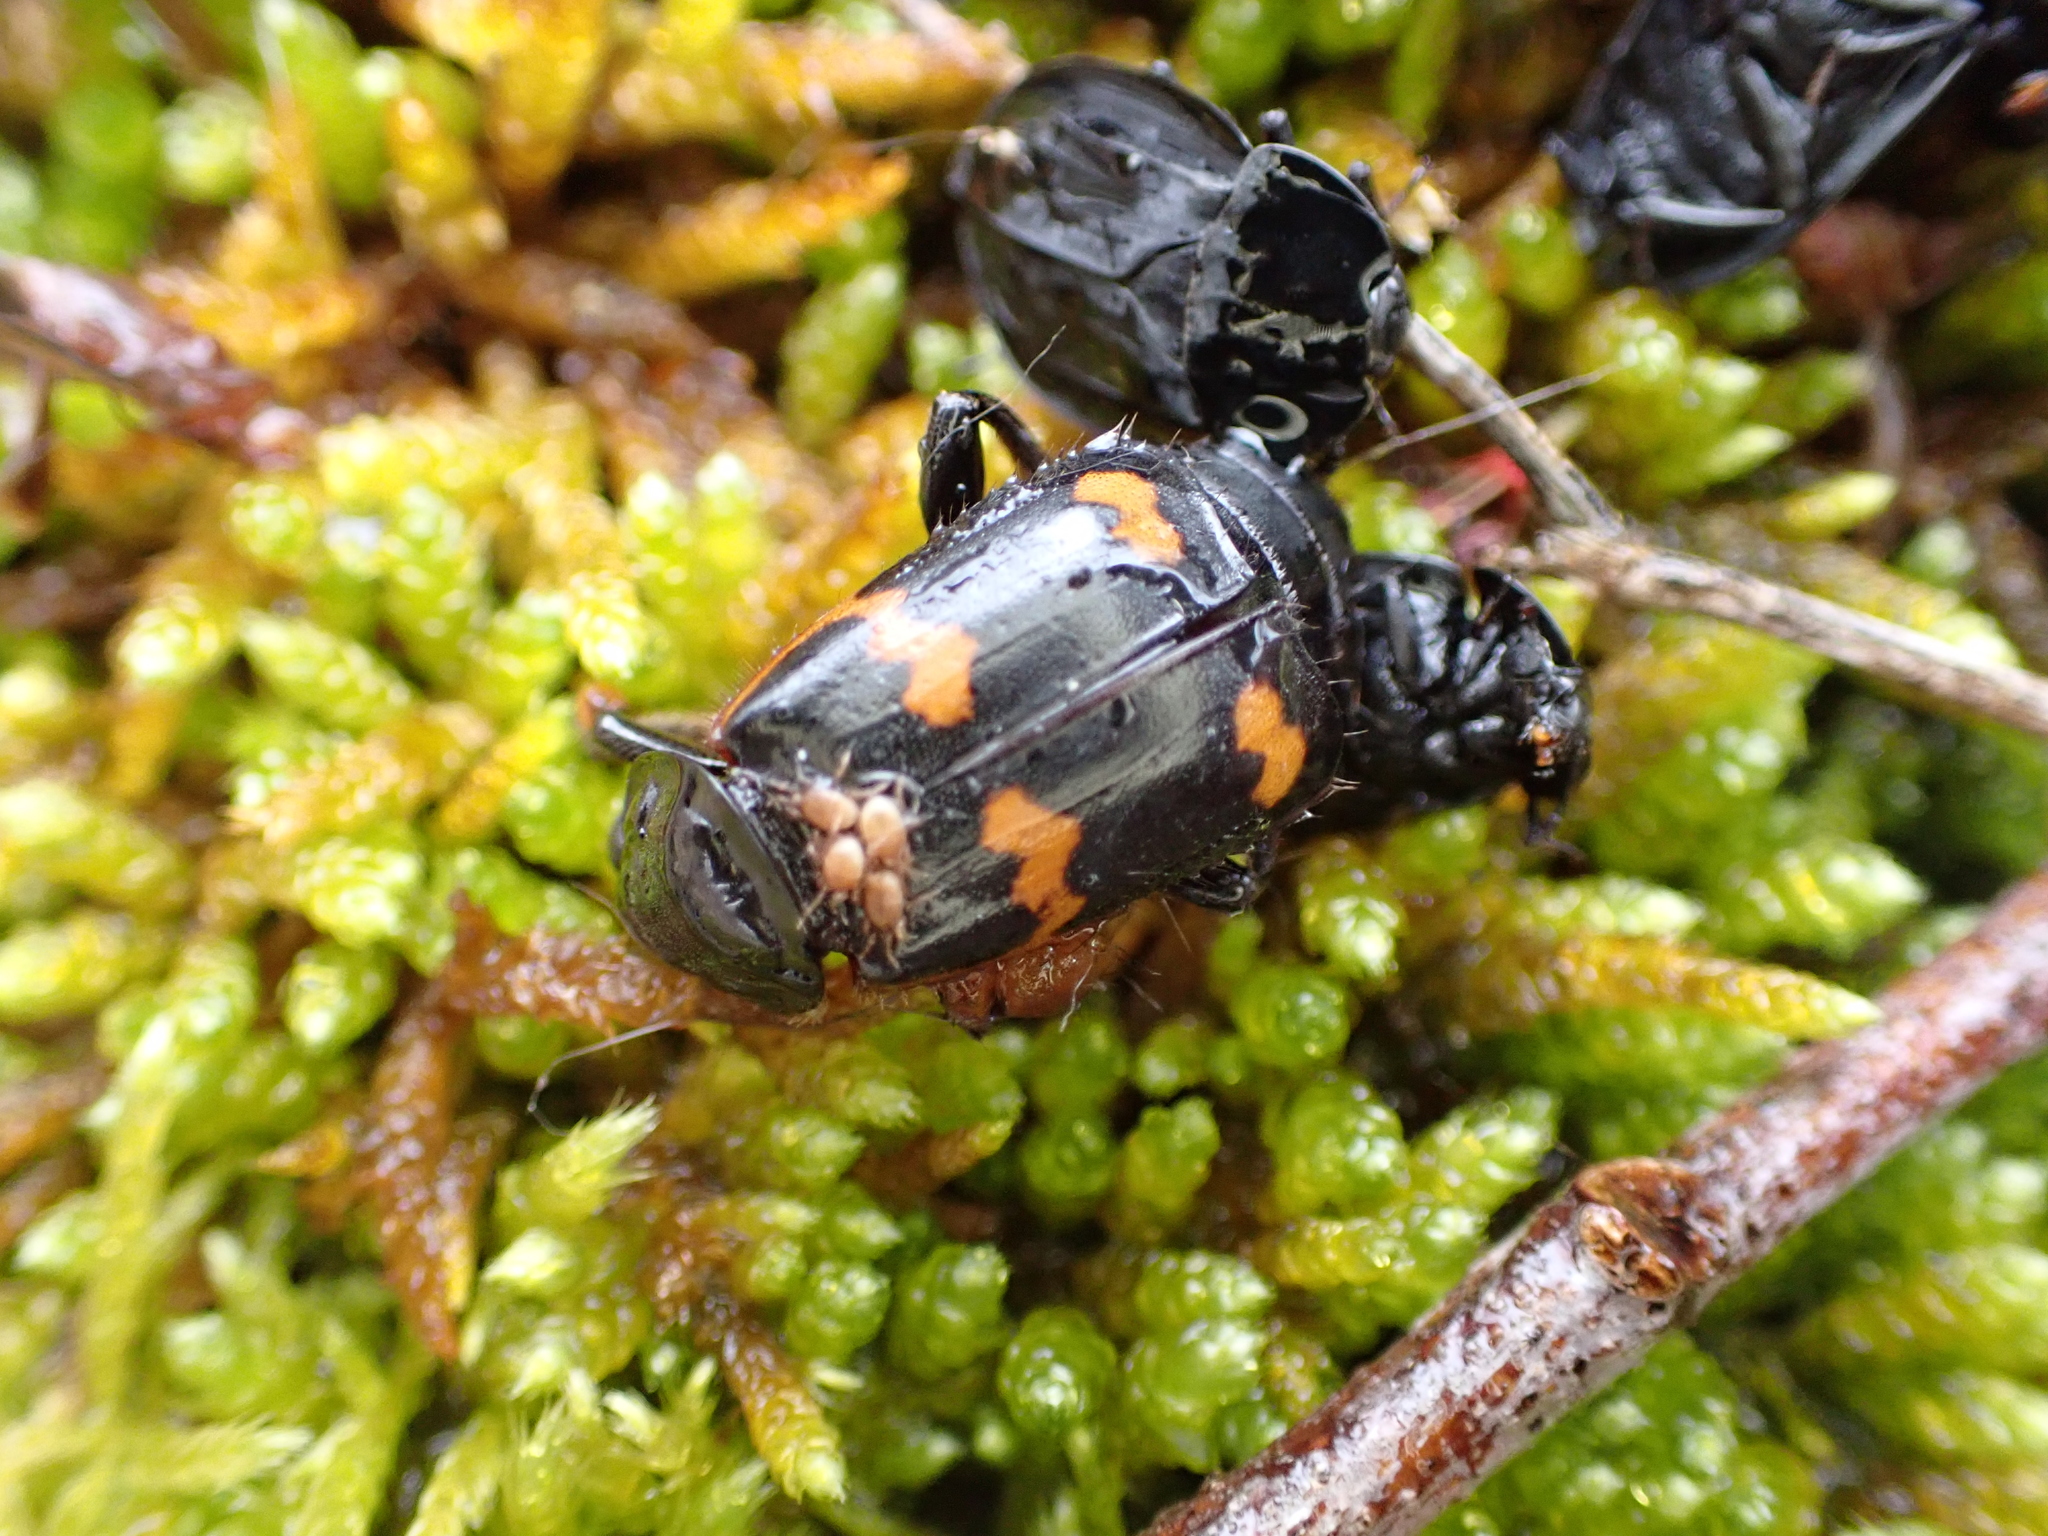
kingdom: Animalia
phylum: Arthropoda
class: Insecta
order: Coleoptera
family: Staphylinidae
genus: Nicrophorus
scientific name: Nicrophorus sayi
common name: Say's burying beetle
